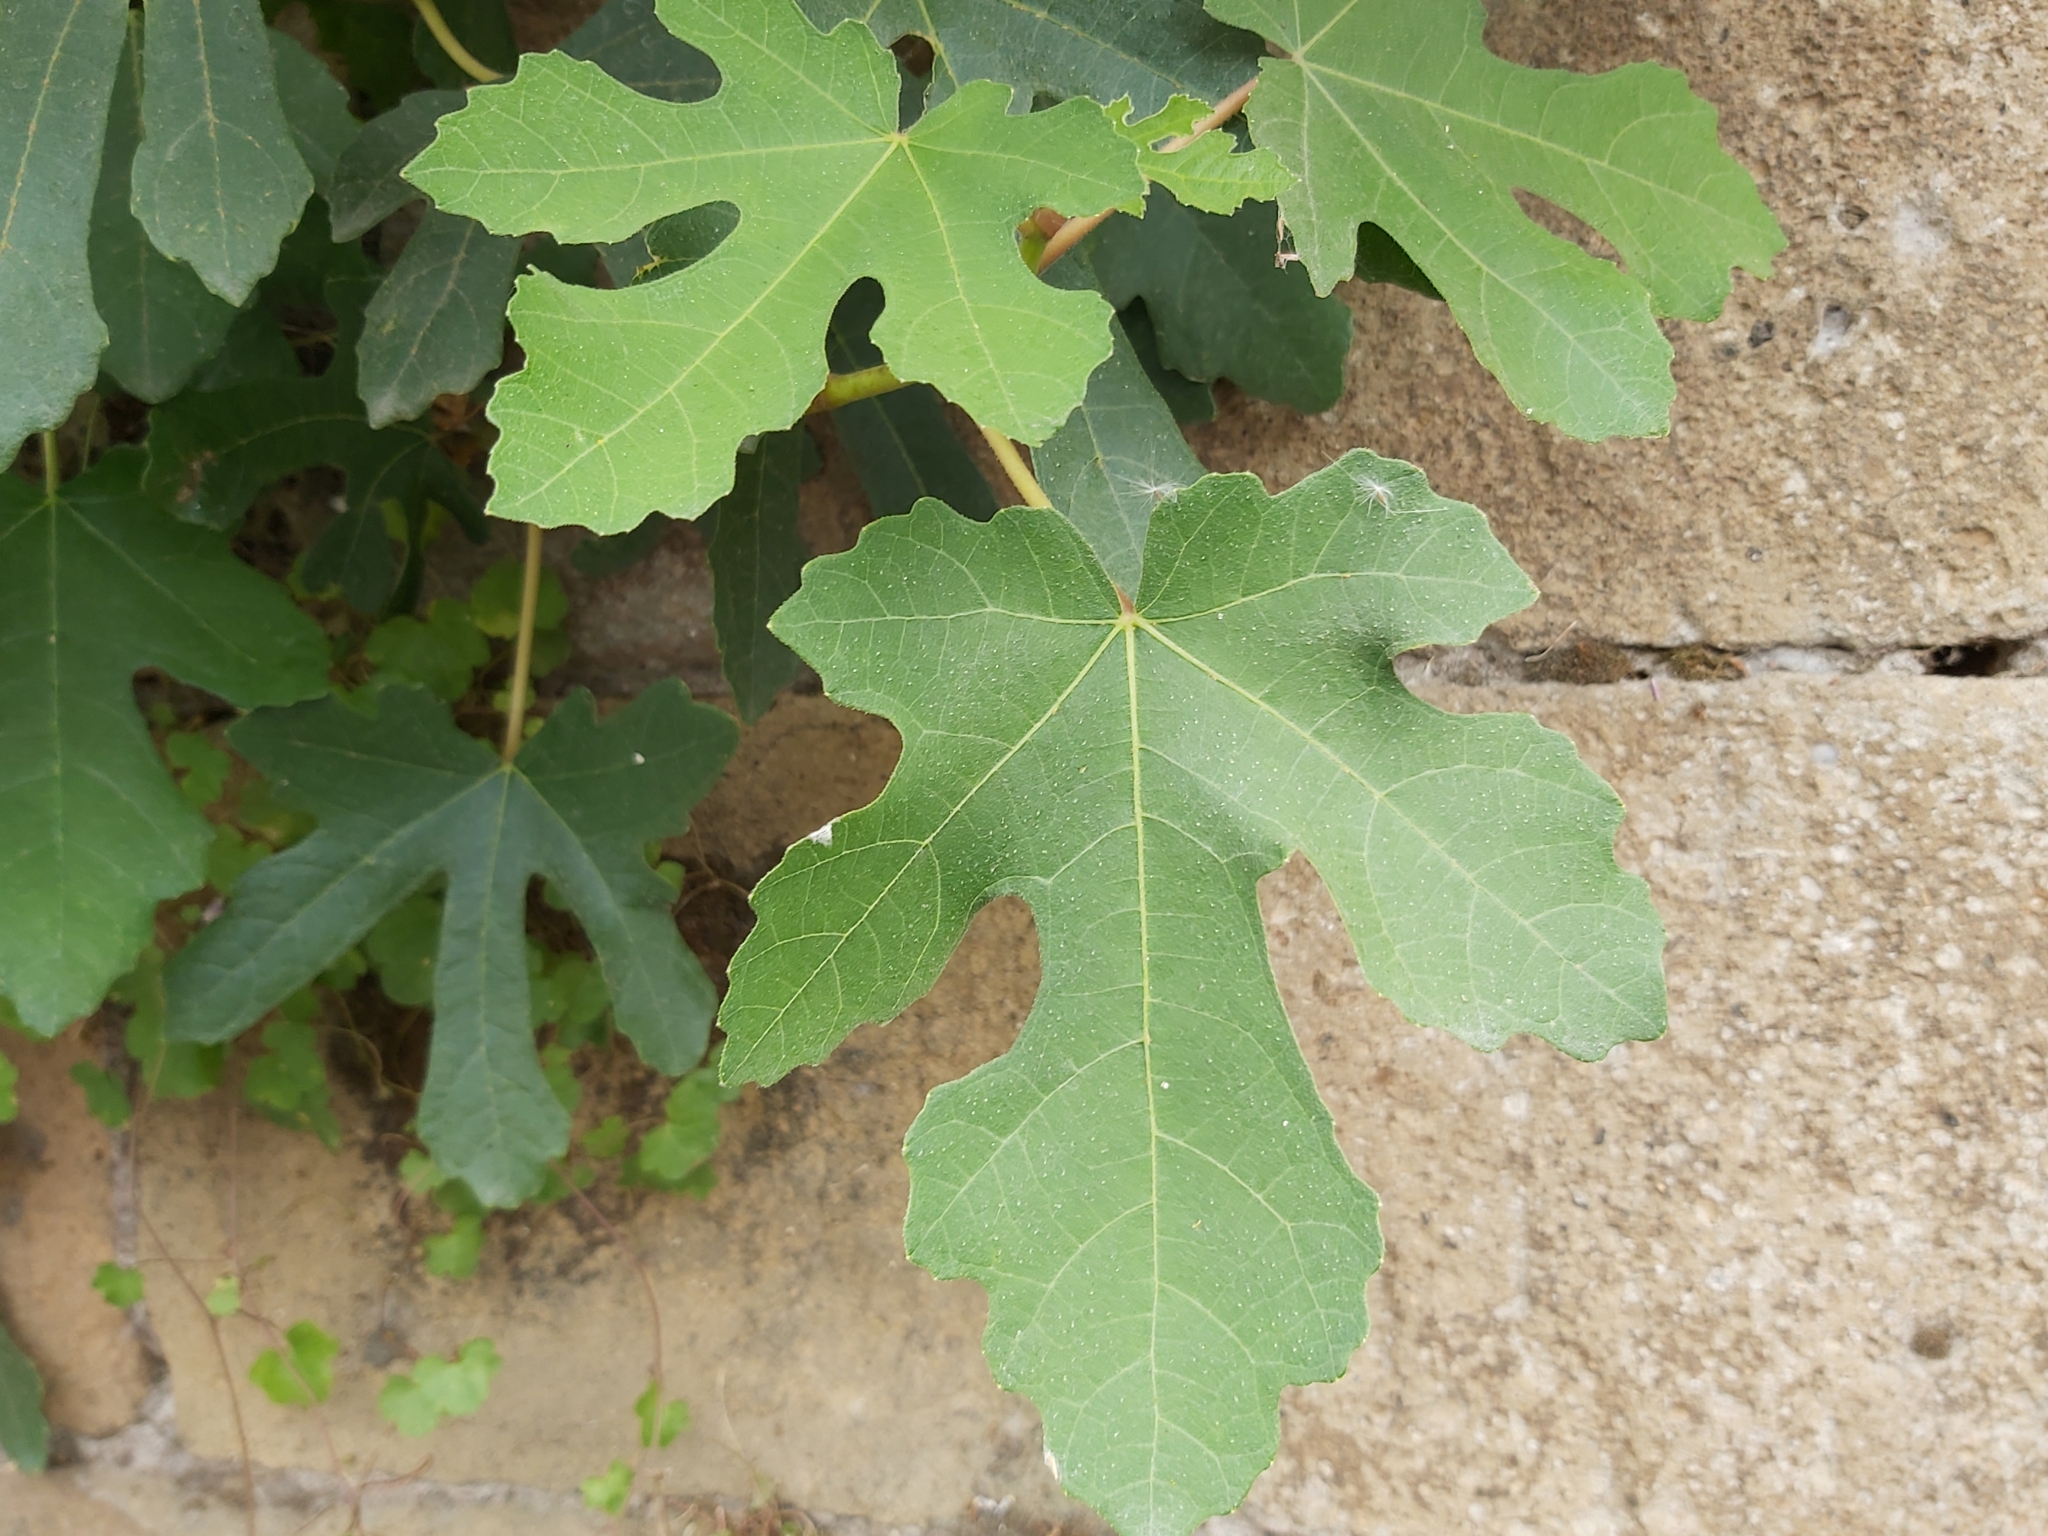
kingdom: Plantae
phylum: Tracheophyta
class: Magnoliopsida
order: Rosales
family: Moraceae
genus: Ficus
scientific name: Ficus carica
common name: Fig
